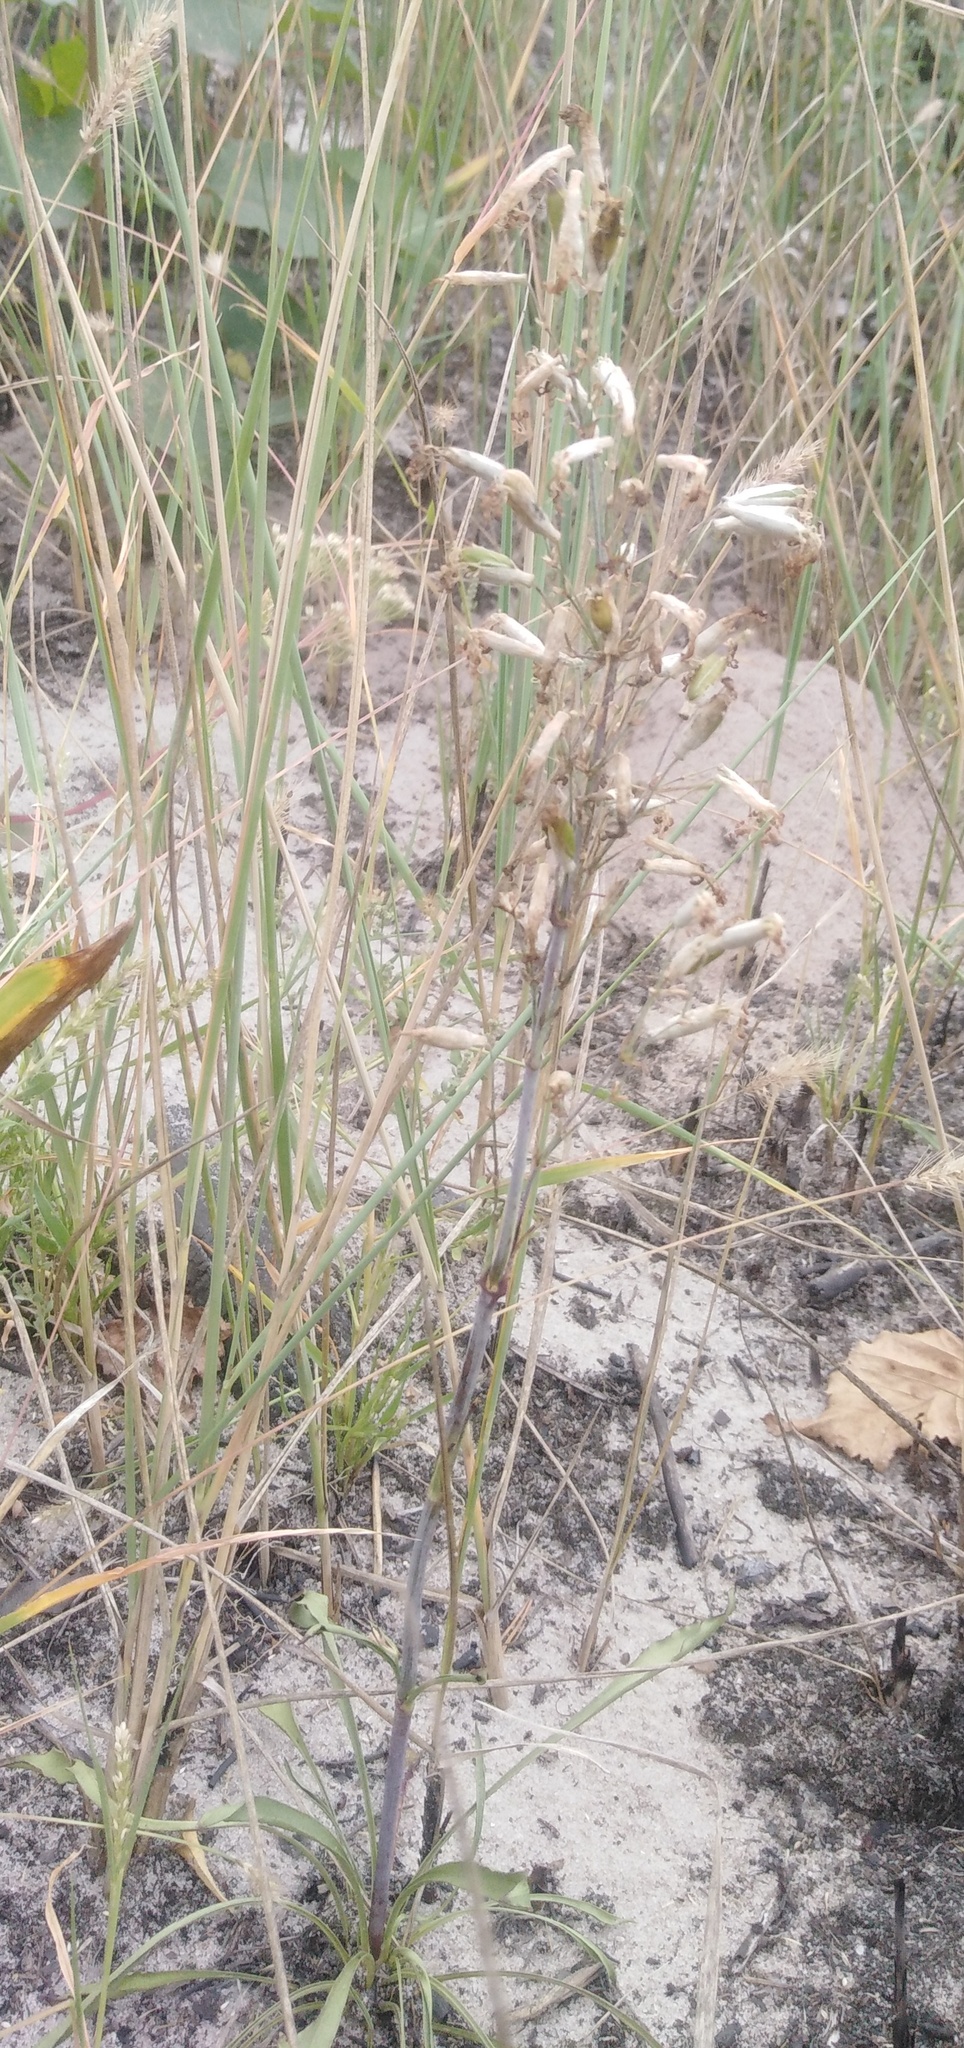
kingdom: Plantae
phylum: Tracheophyta
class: Magnoliopsida
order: Caryophyllales
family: Caryophyllaceae
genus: Silene
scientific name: Silene chlorantha
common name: Yellowgreen catchfly
